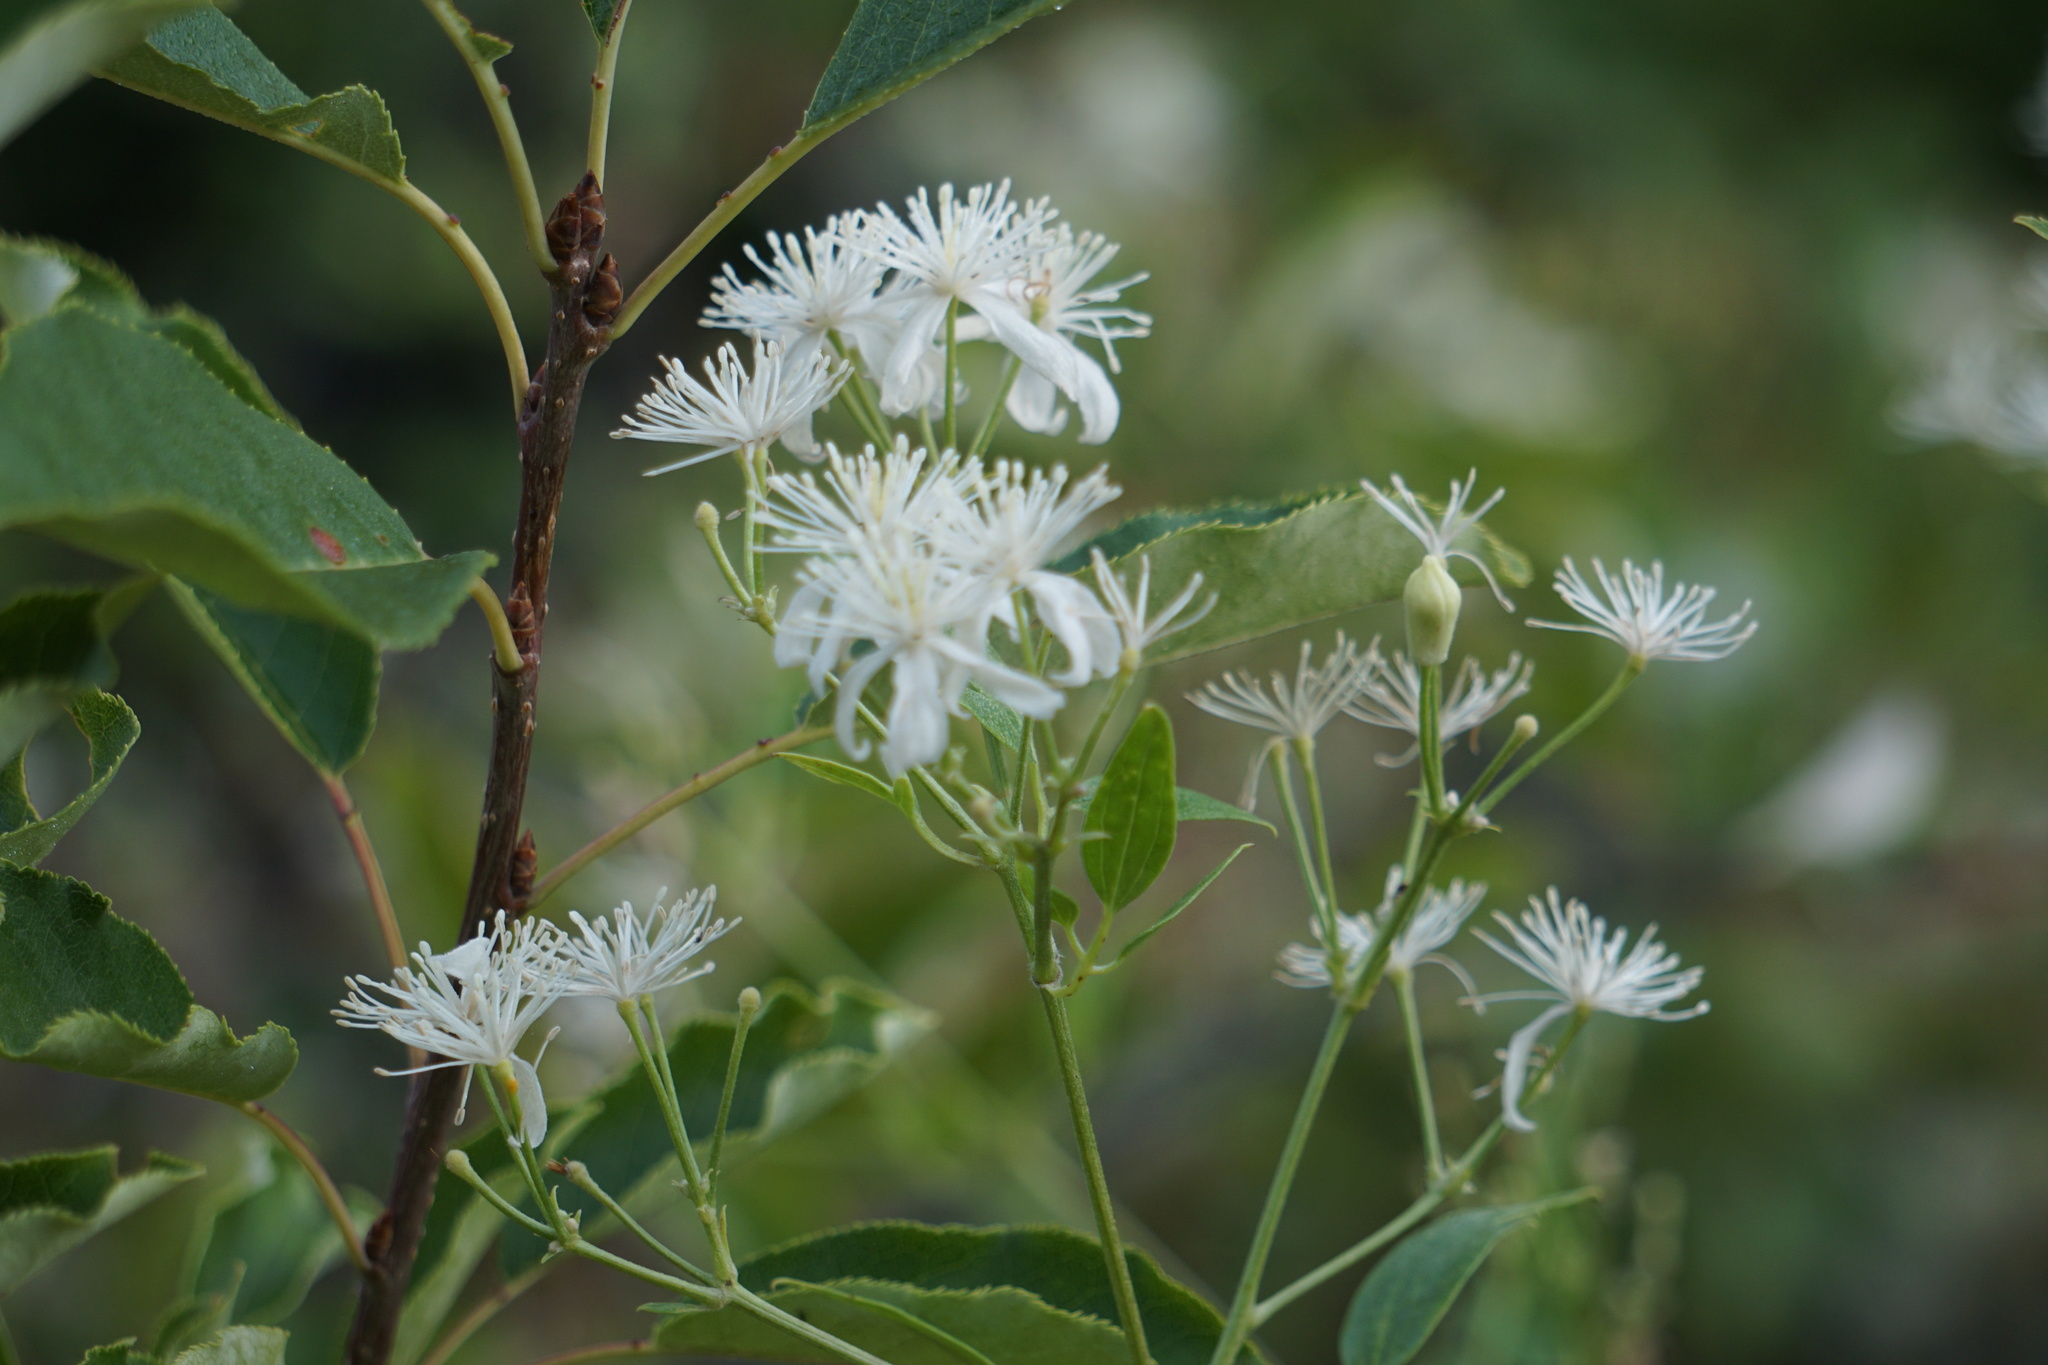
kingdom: Plantae
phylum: Tracheophyta
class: Magnoliopsida
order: Ranunculales
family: Ranunculaceae
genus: Clematis
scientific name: Clematis ligusticifolia
